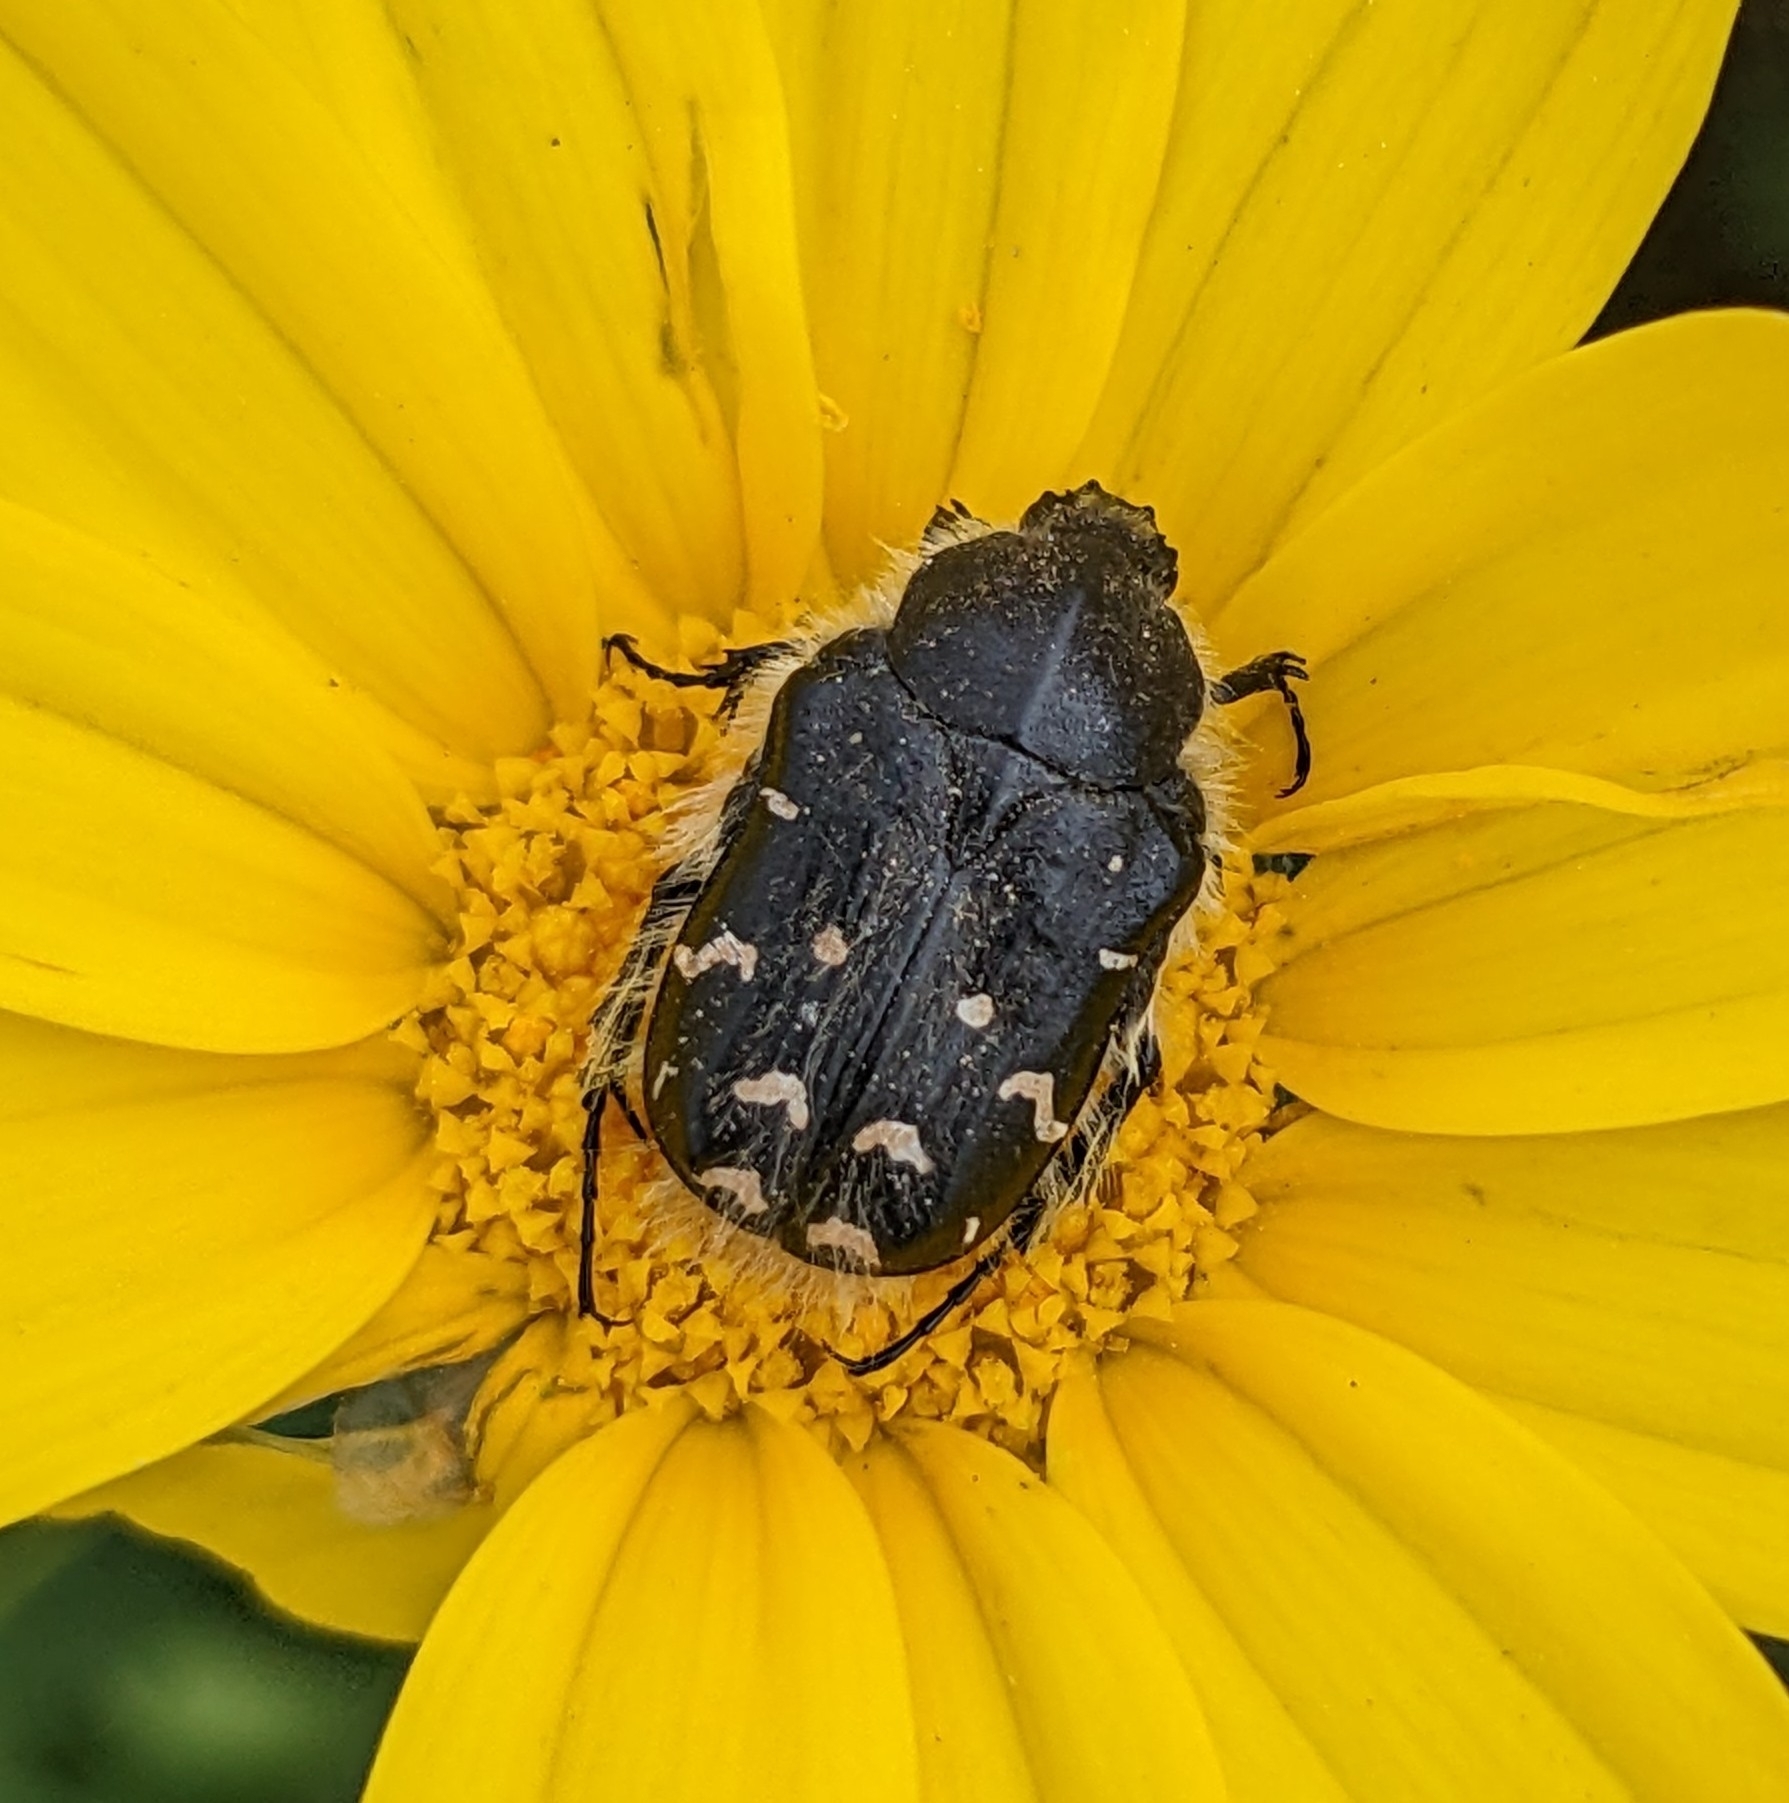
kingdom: Animalia
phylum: Arthropoda
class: Insecta
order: Coleoptera
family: Scarabaeidae
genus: Tropinota
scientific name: Tropinota hirta
